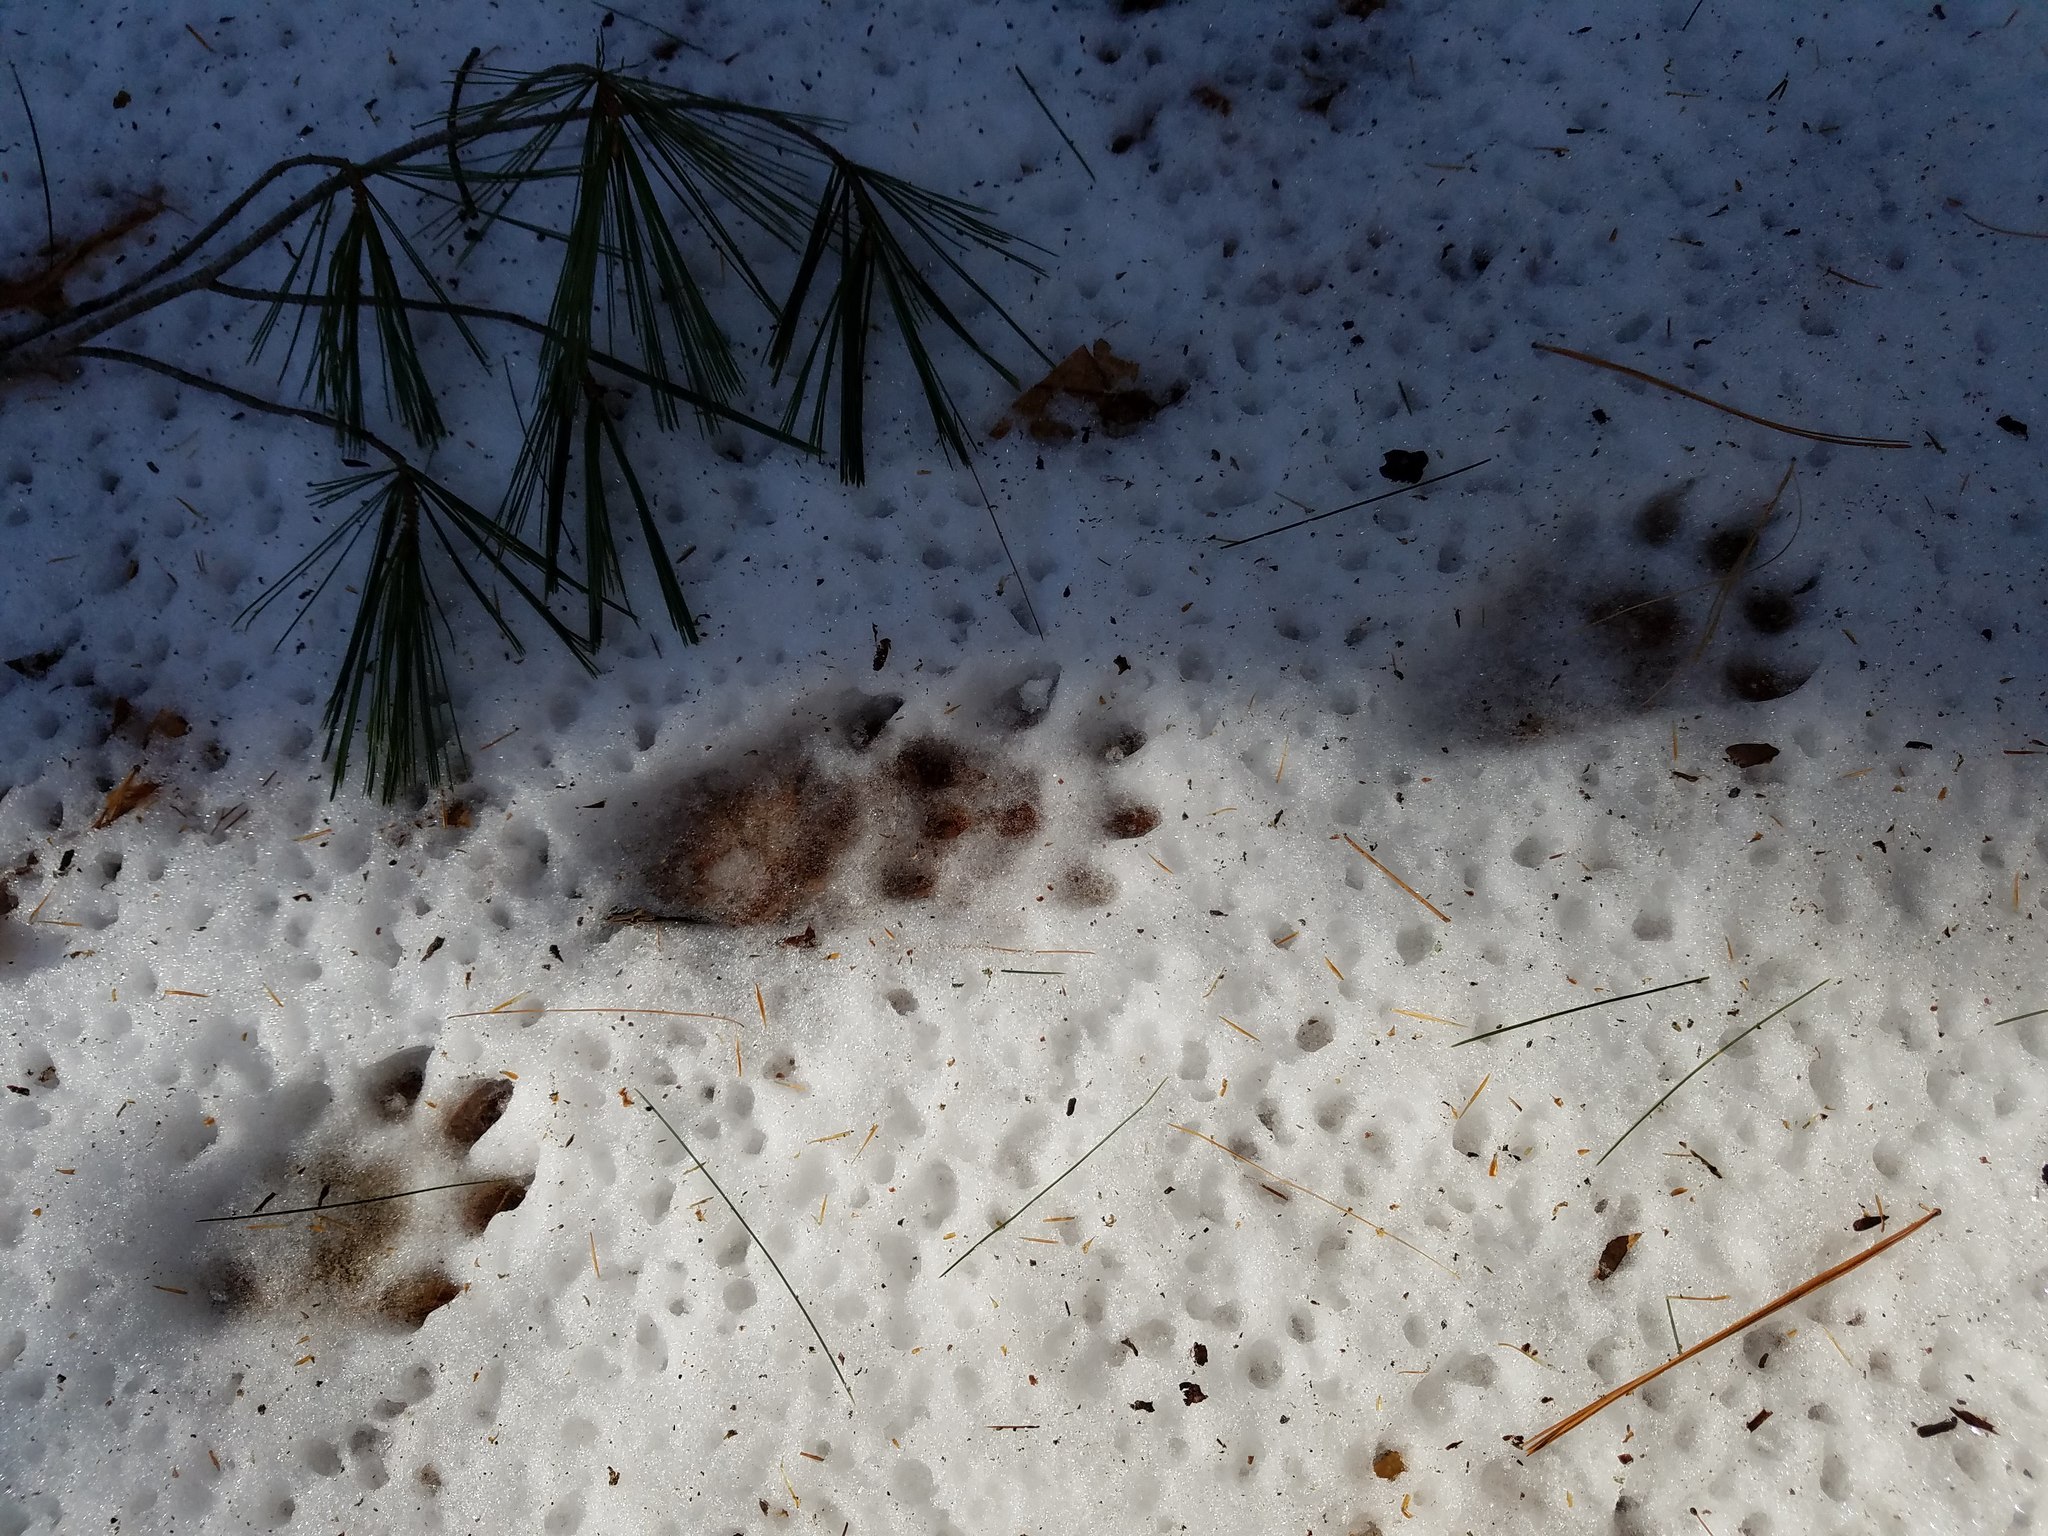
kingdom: Animalia
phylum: Chordata
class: Mammalia
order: Carnivora
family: Mustelidae
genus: Pekania
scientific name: Pekania pennanti
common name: Fisher
